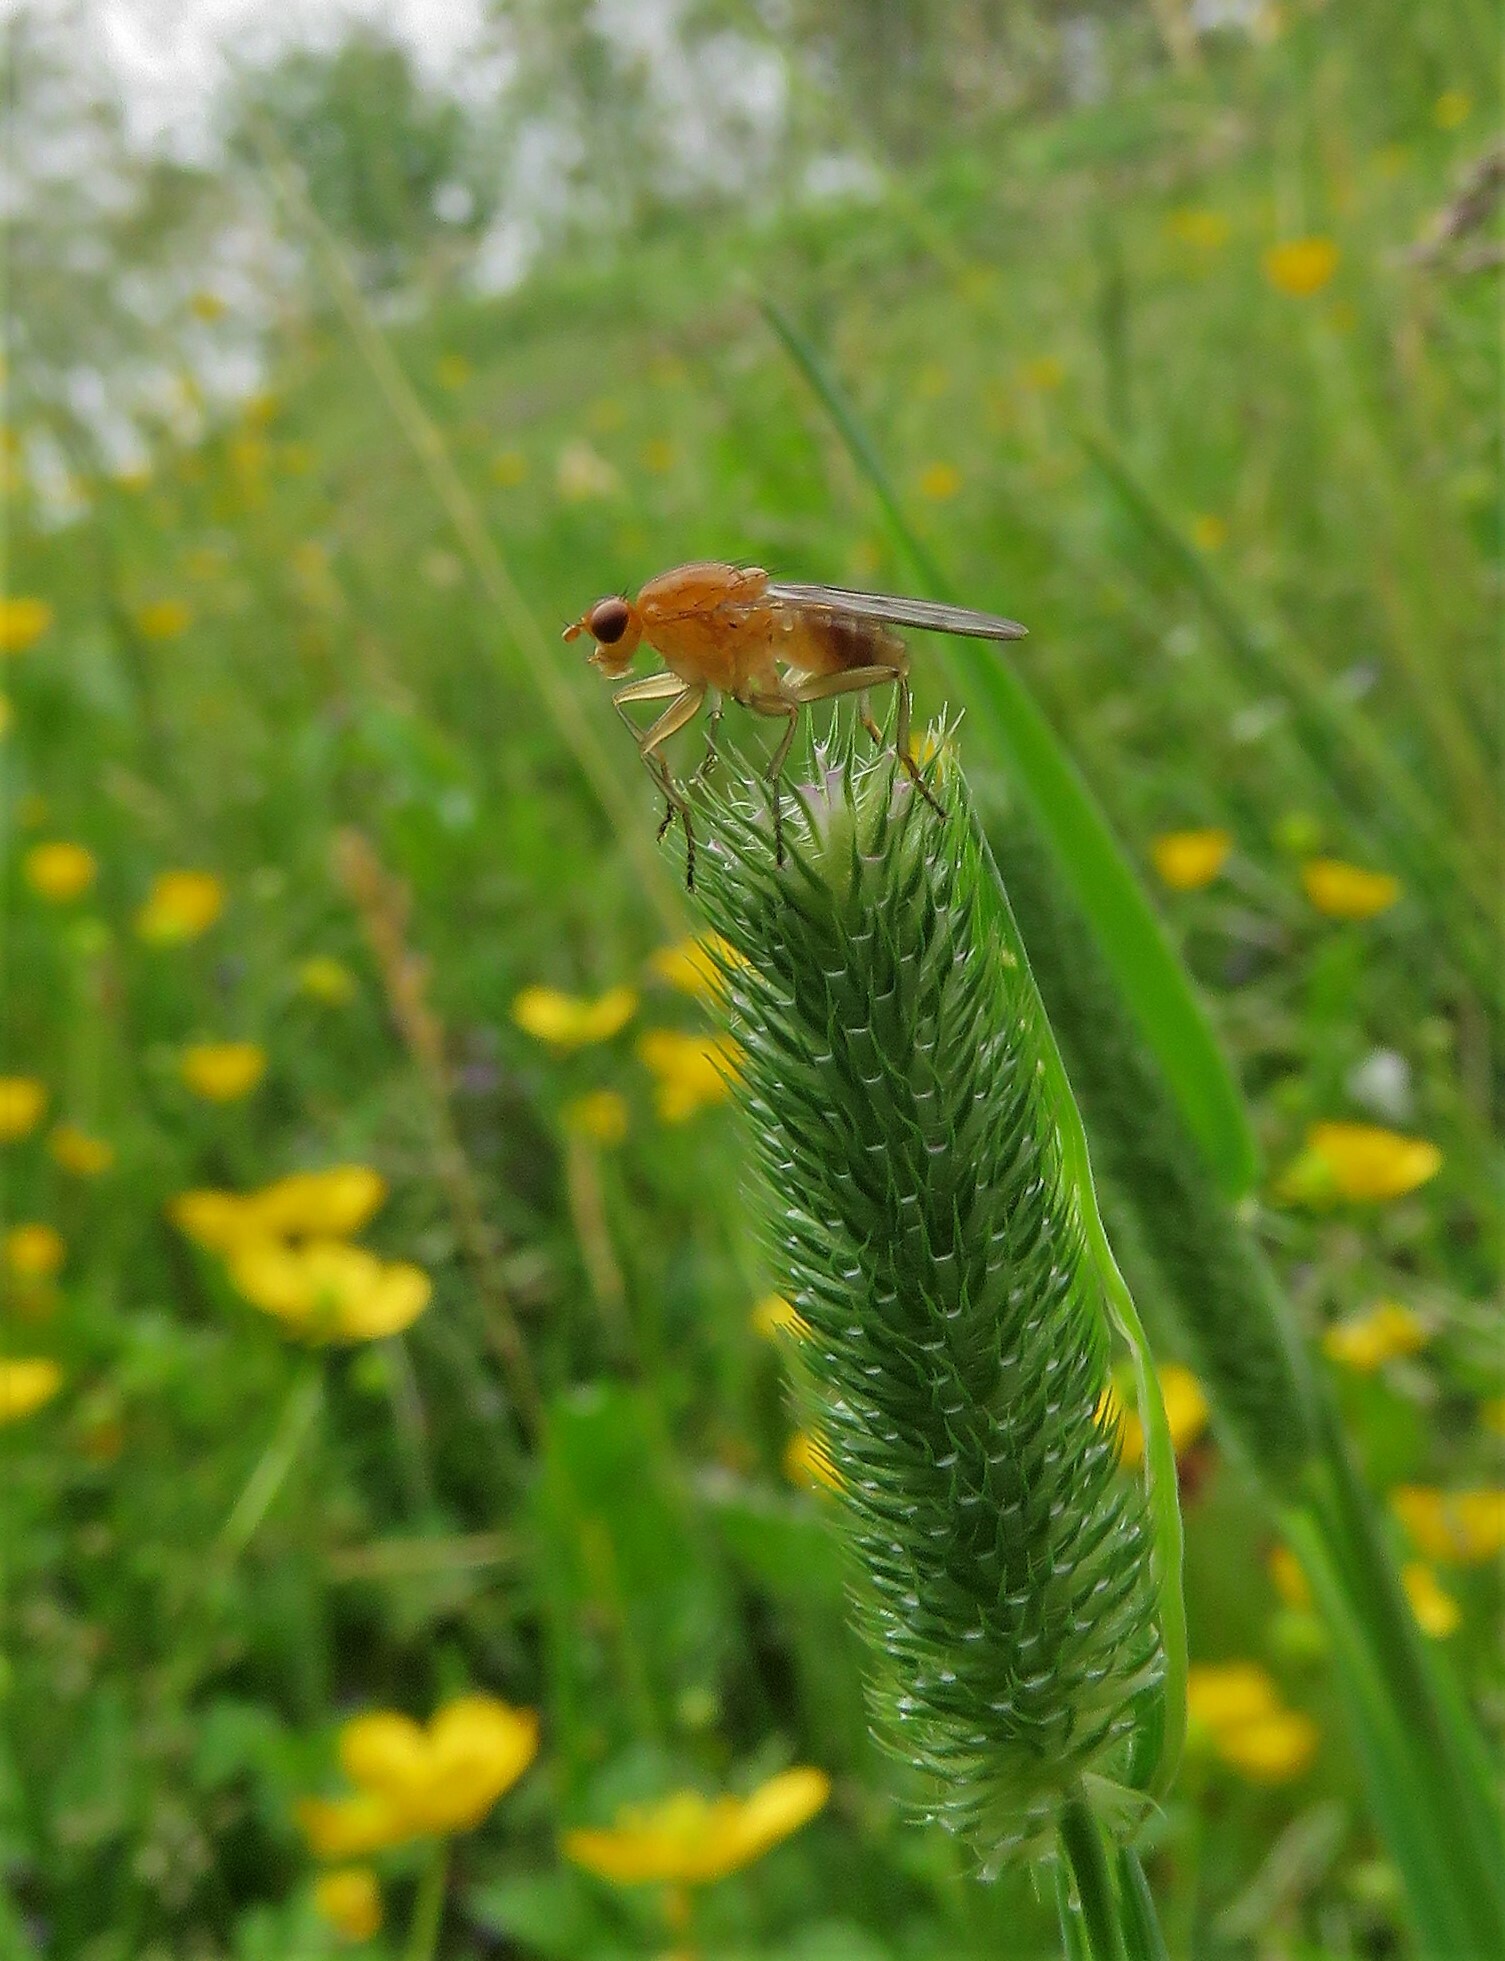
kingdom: Animalia
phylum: Arthropoda
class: Insecta
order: Diptera
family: Dryomyzidae
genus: Dryomyza
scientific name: Dryomyza anilis
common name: Marsh fly
